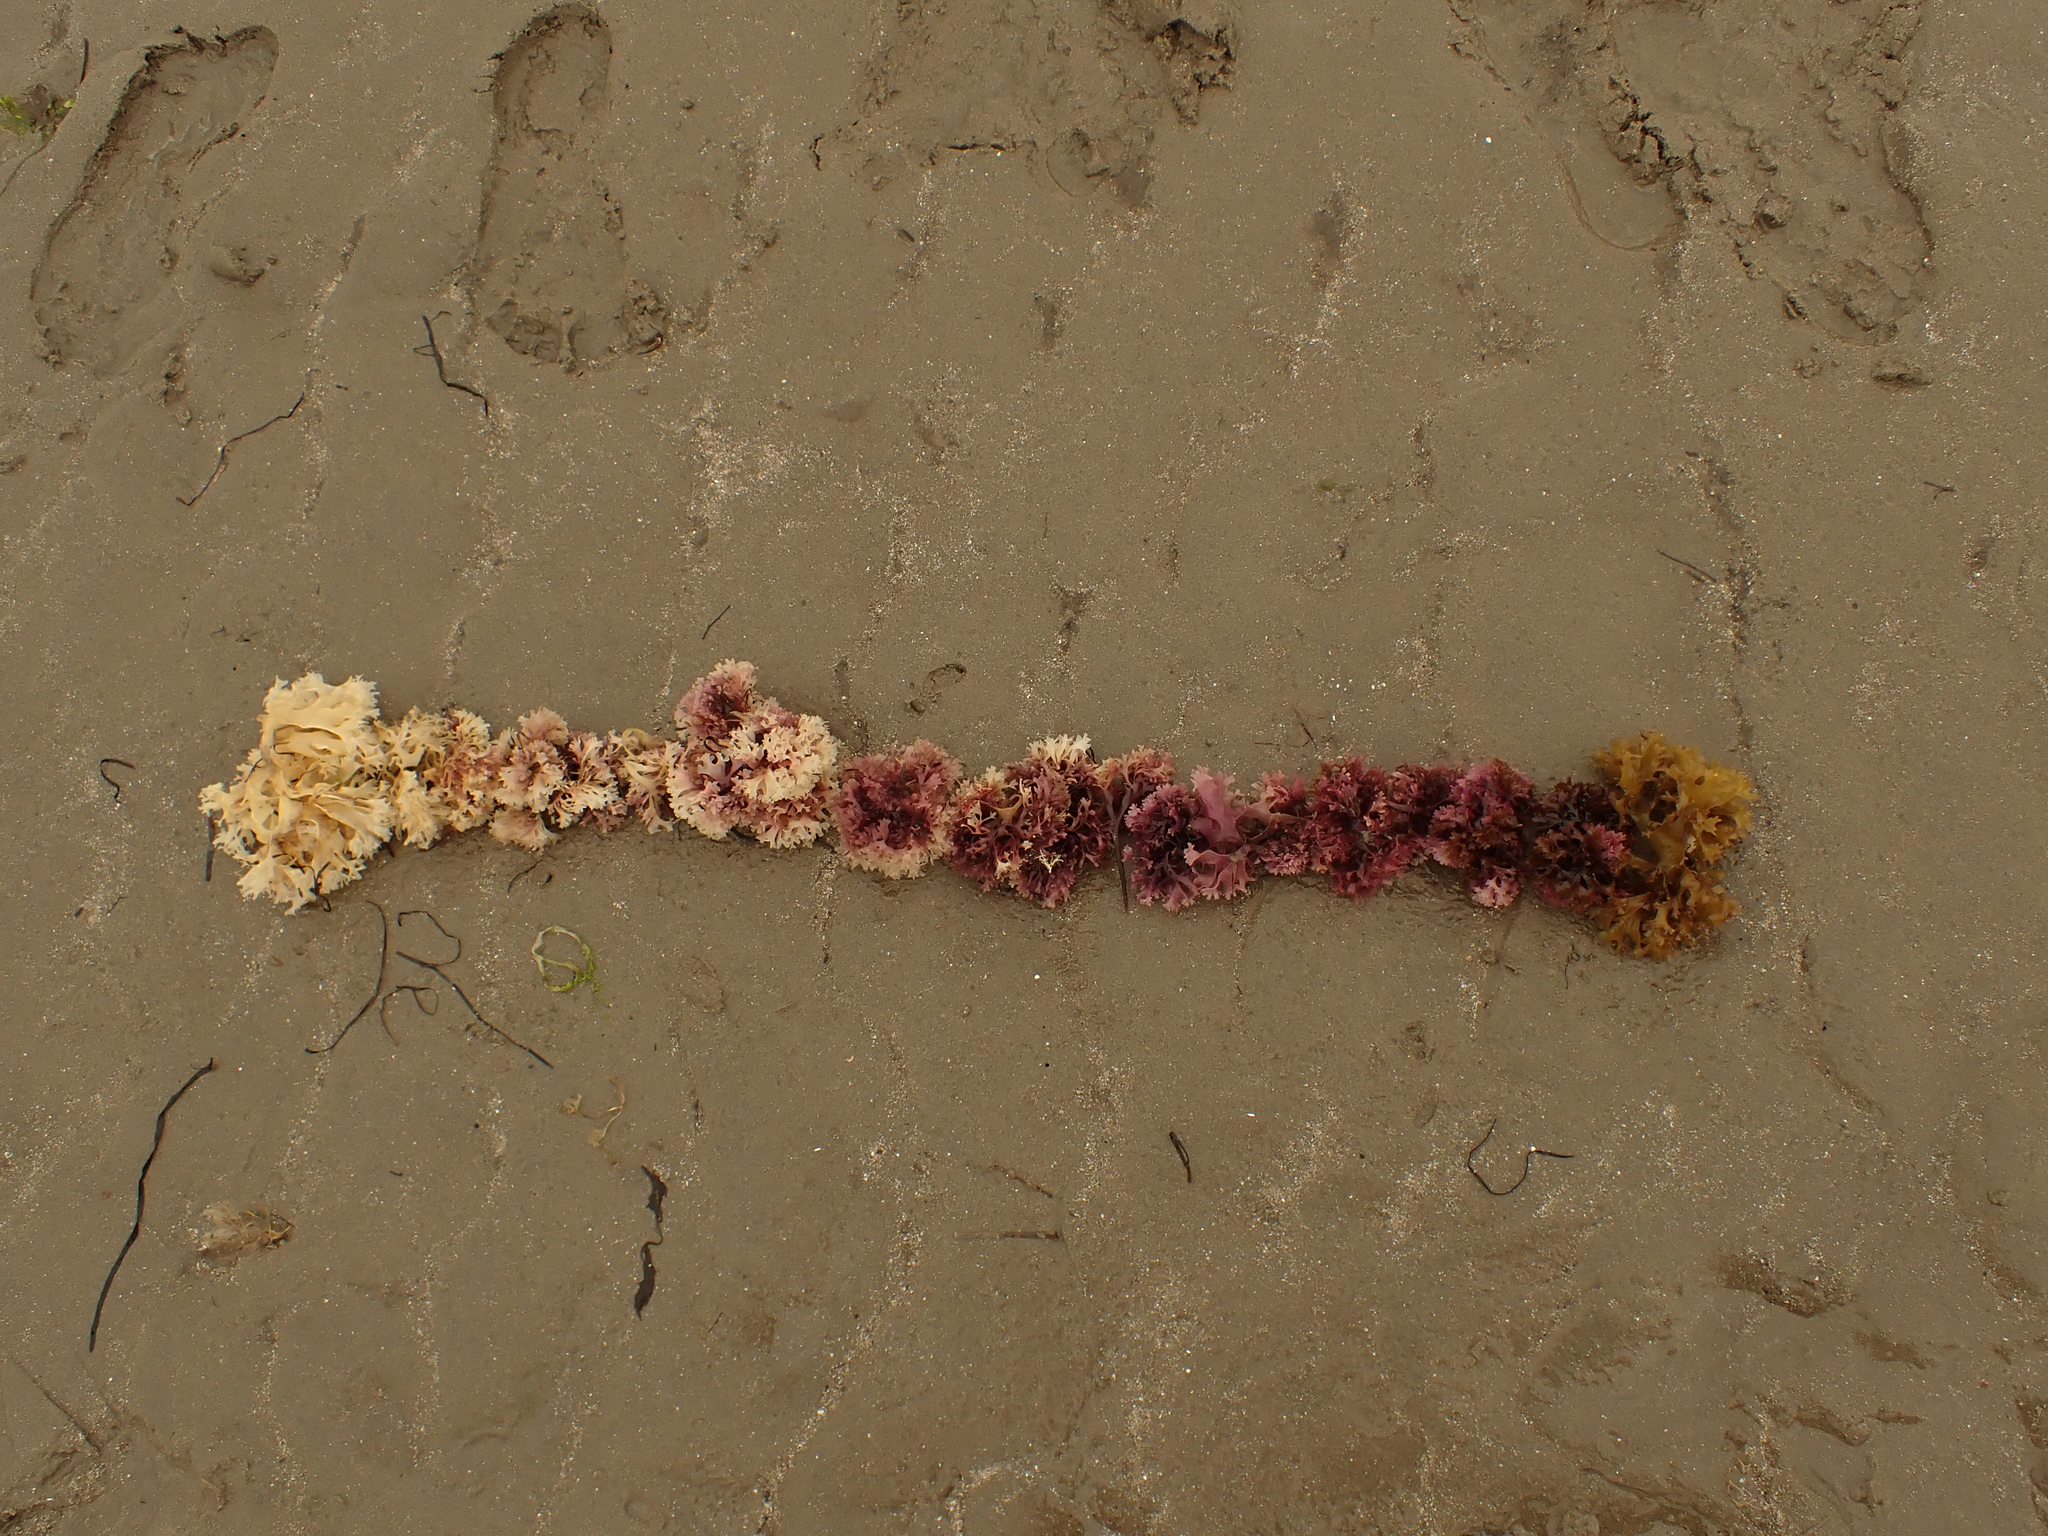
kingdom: Plantae
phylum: Rhodophyta
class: Florideophyceae
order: Gigartinales
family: Gigartinaceae
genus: Chondrus
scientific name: Chondrus crispus
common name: Carrageen
